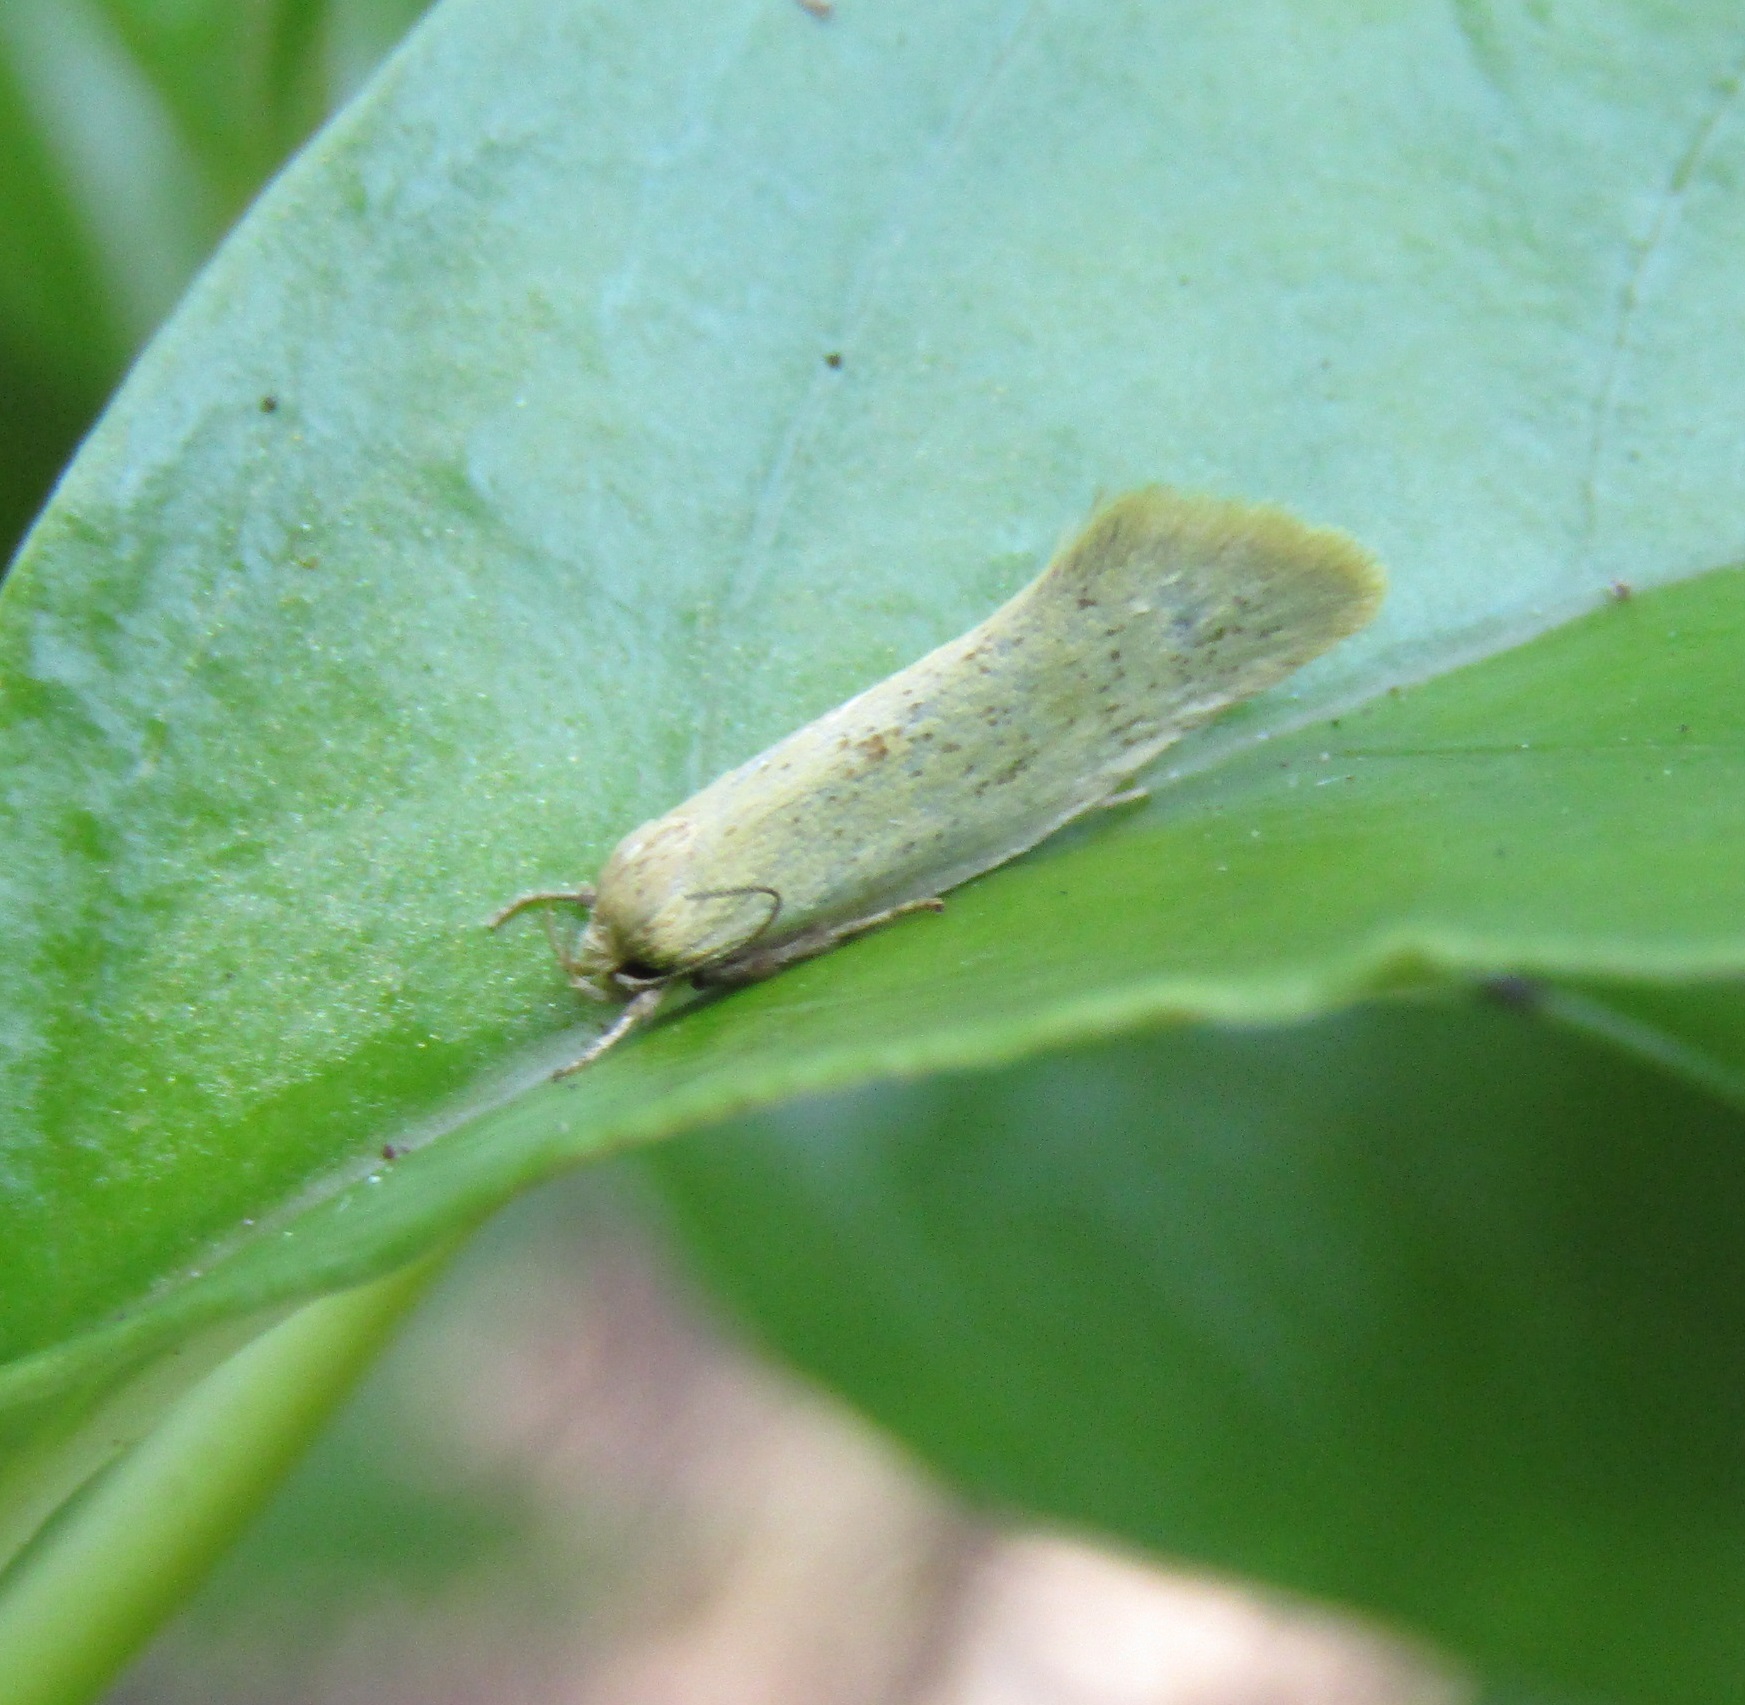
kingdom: Animalia
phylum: Arthropoda
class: Insecta
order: Lepidoptera
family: Oecophoridae
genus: Tingena
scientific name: Tingena armigerella
